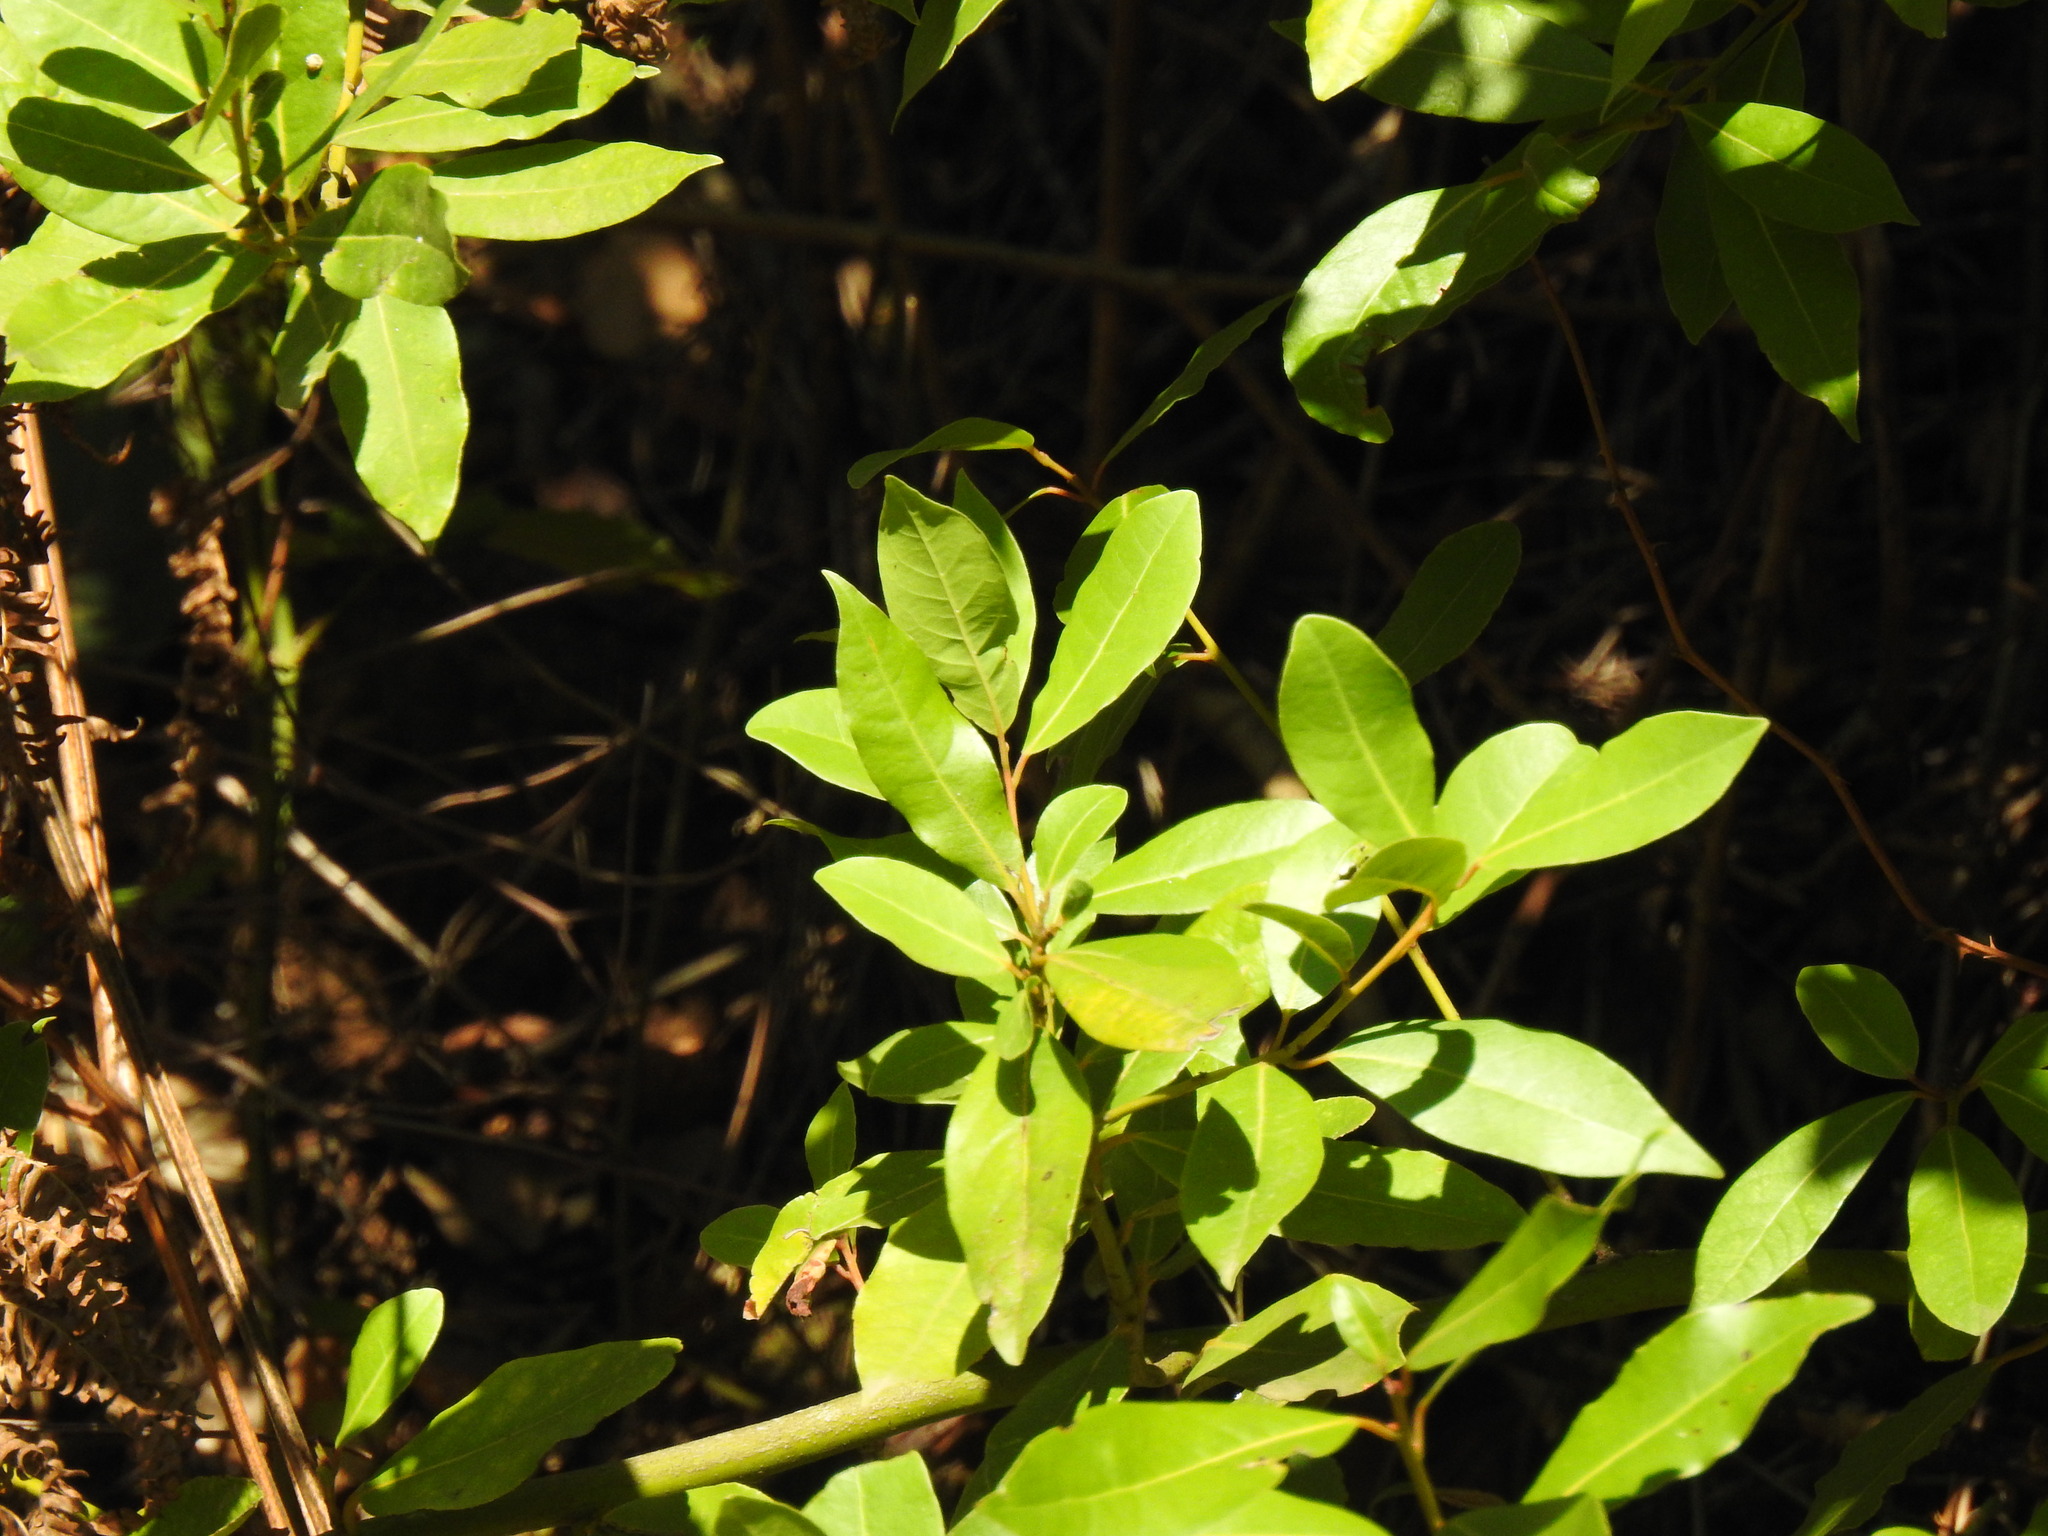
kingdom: Plantae
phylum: Tracheophyta
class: Magnoliopsida
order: Laurales
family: Lauraceae
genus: Laurus
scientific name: Laurus nobilis
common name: Bay
